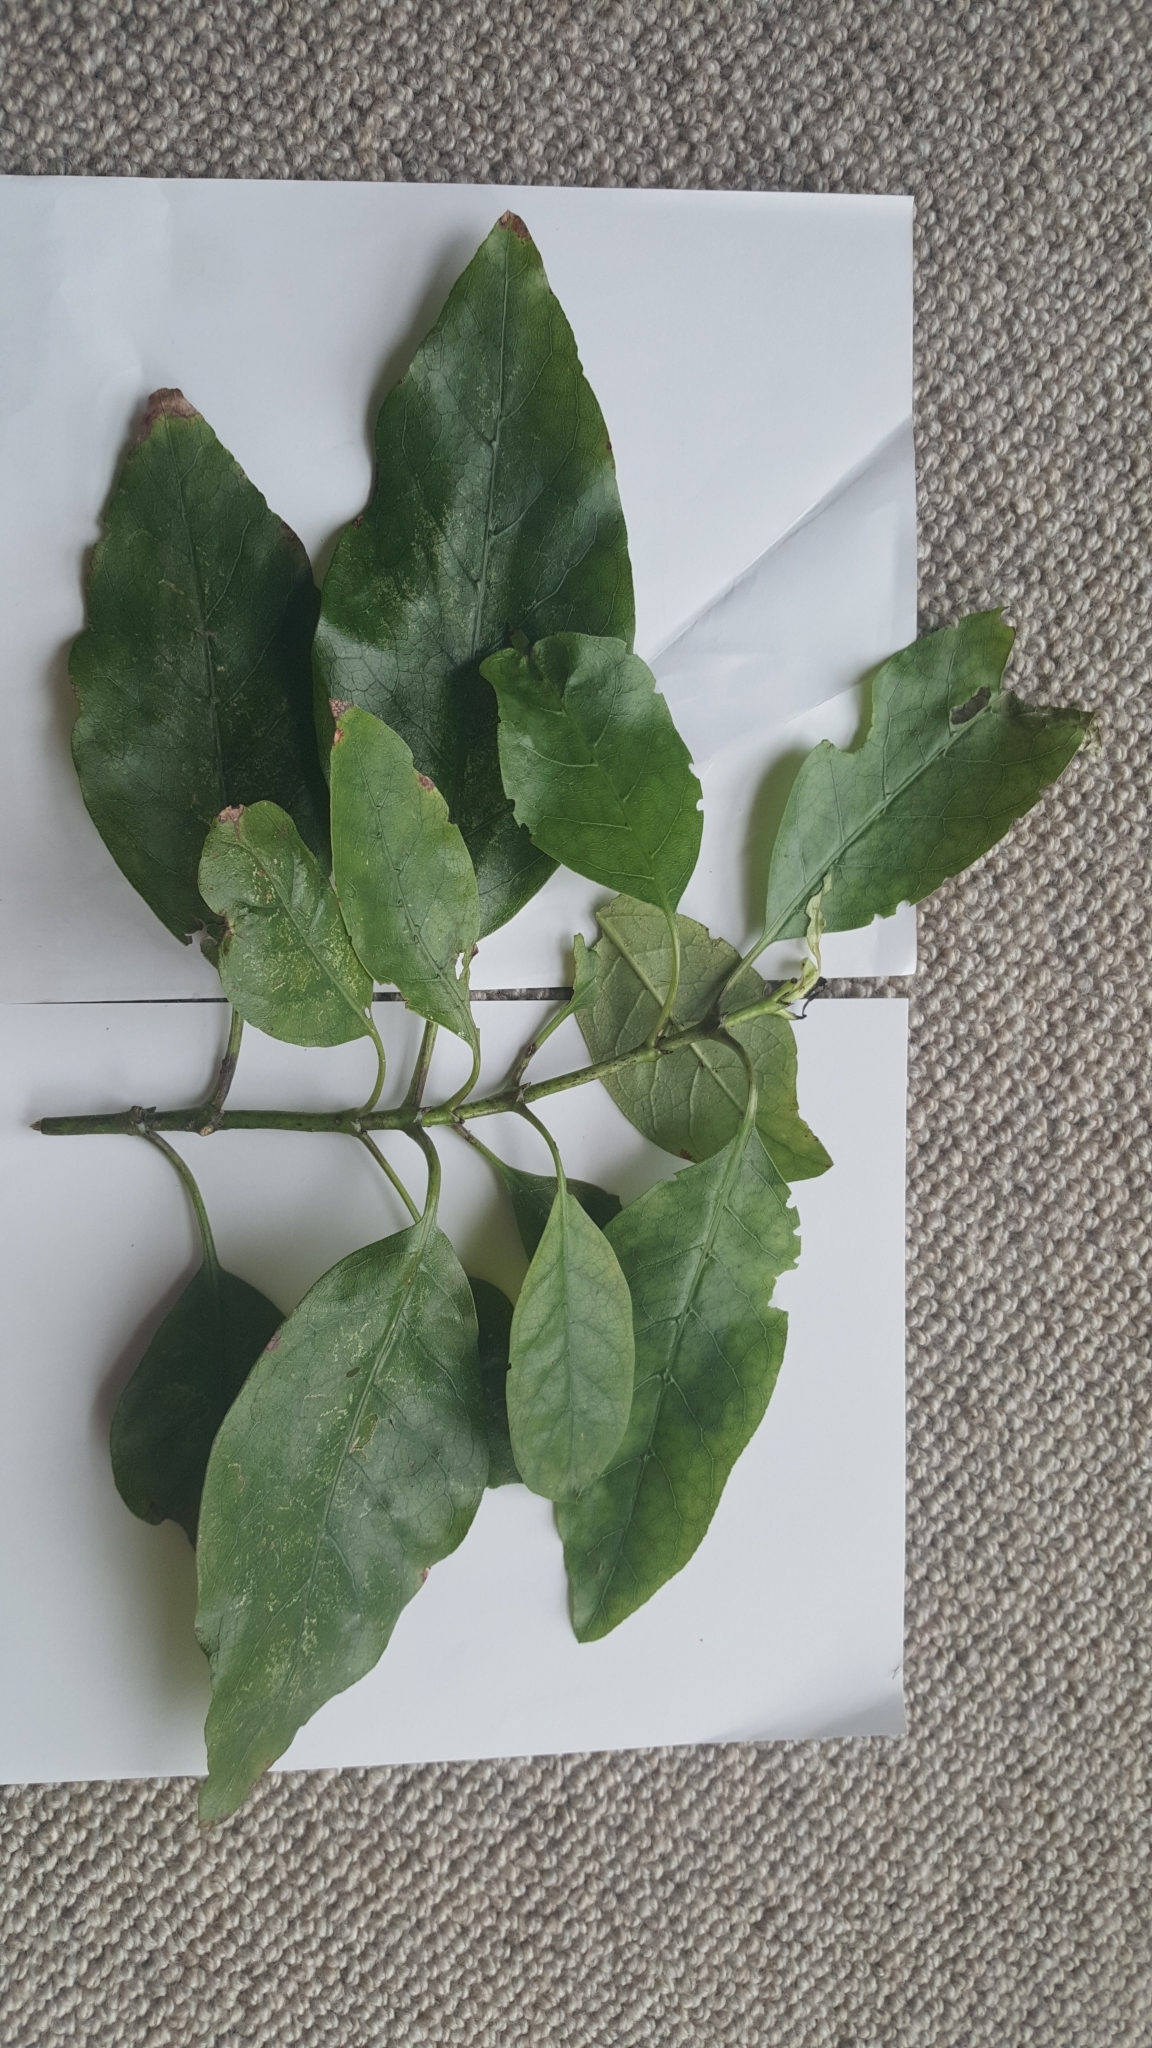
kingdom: Plantae
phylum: Tracheophyta
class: Magnoliopsida
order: Gentianales
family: Rubiaceae
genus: Coprosma
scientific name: Coprosma autumnalis
